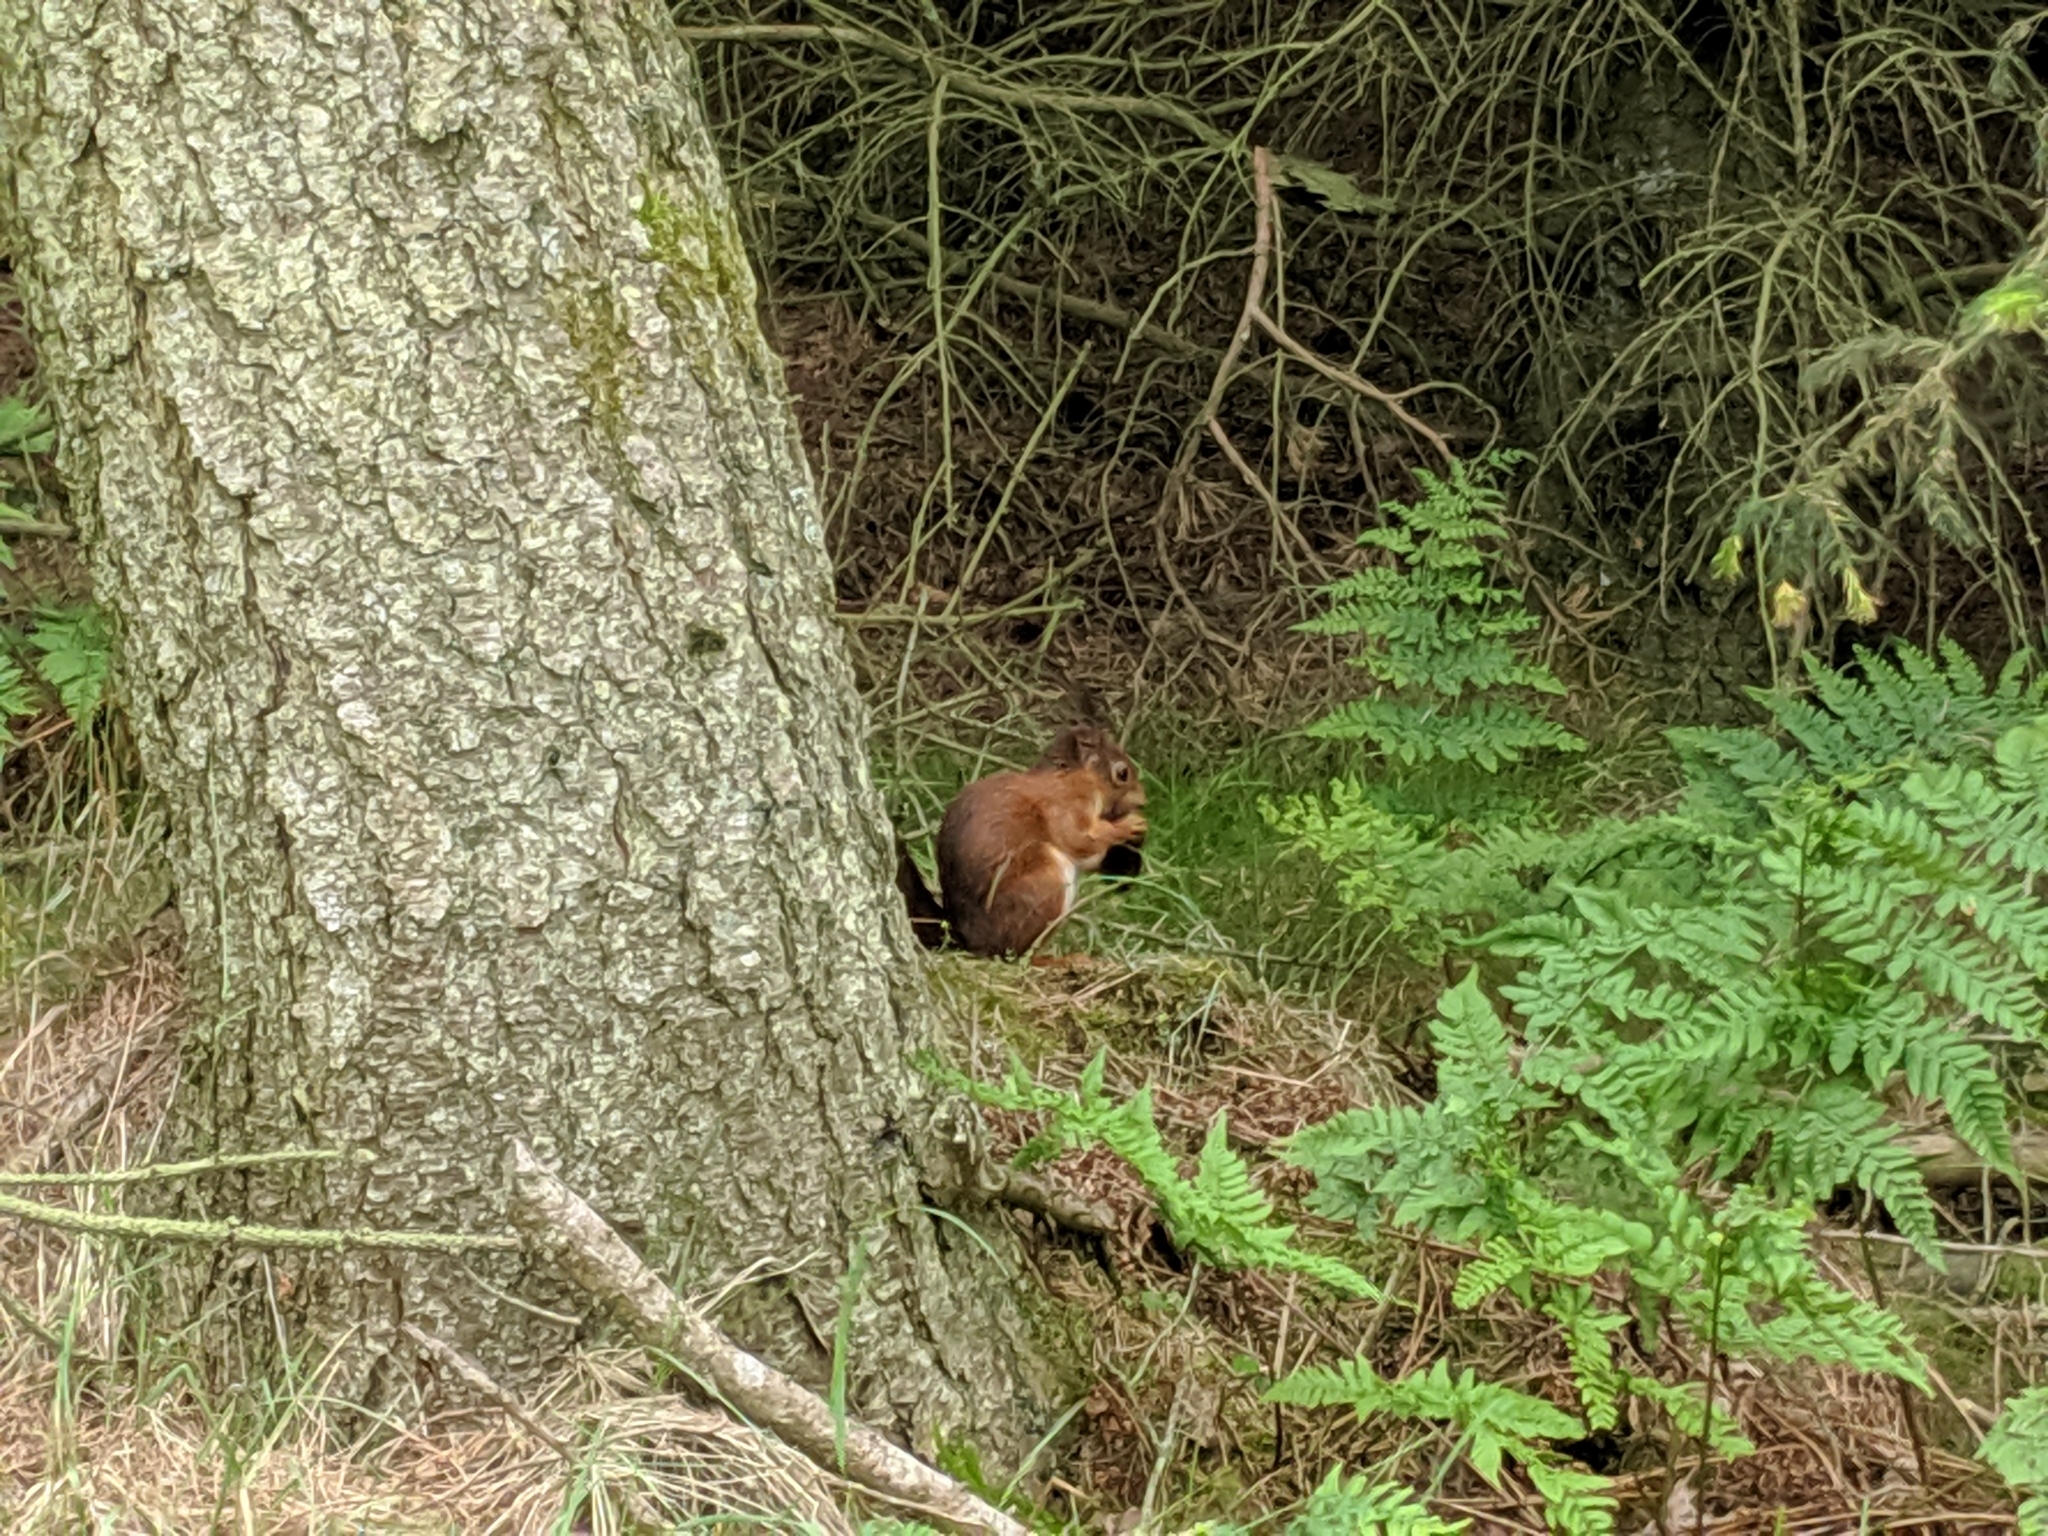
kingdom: Animalia
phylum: Chordata
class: Mammalia
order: Rodentia
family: Sciuridae
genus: Sciurus
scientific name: Sciurus vulgaris
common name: Eurasian red squirrel
